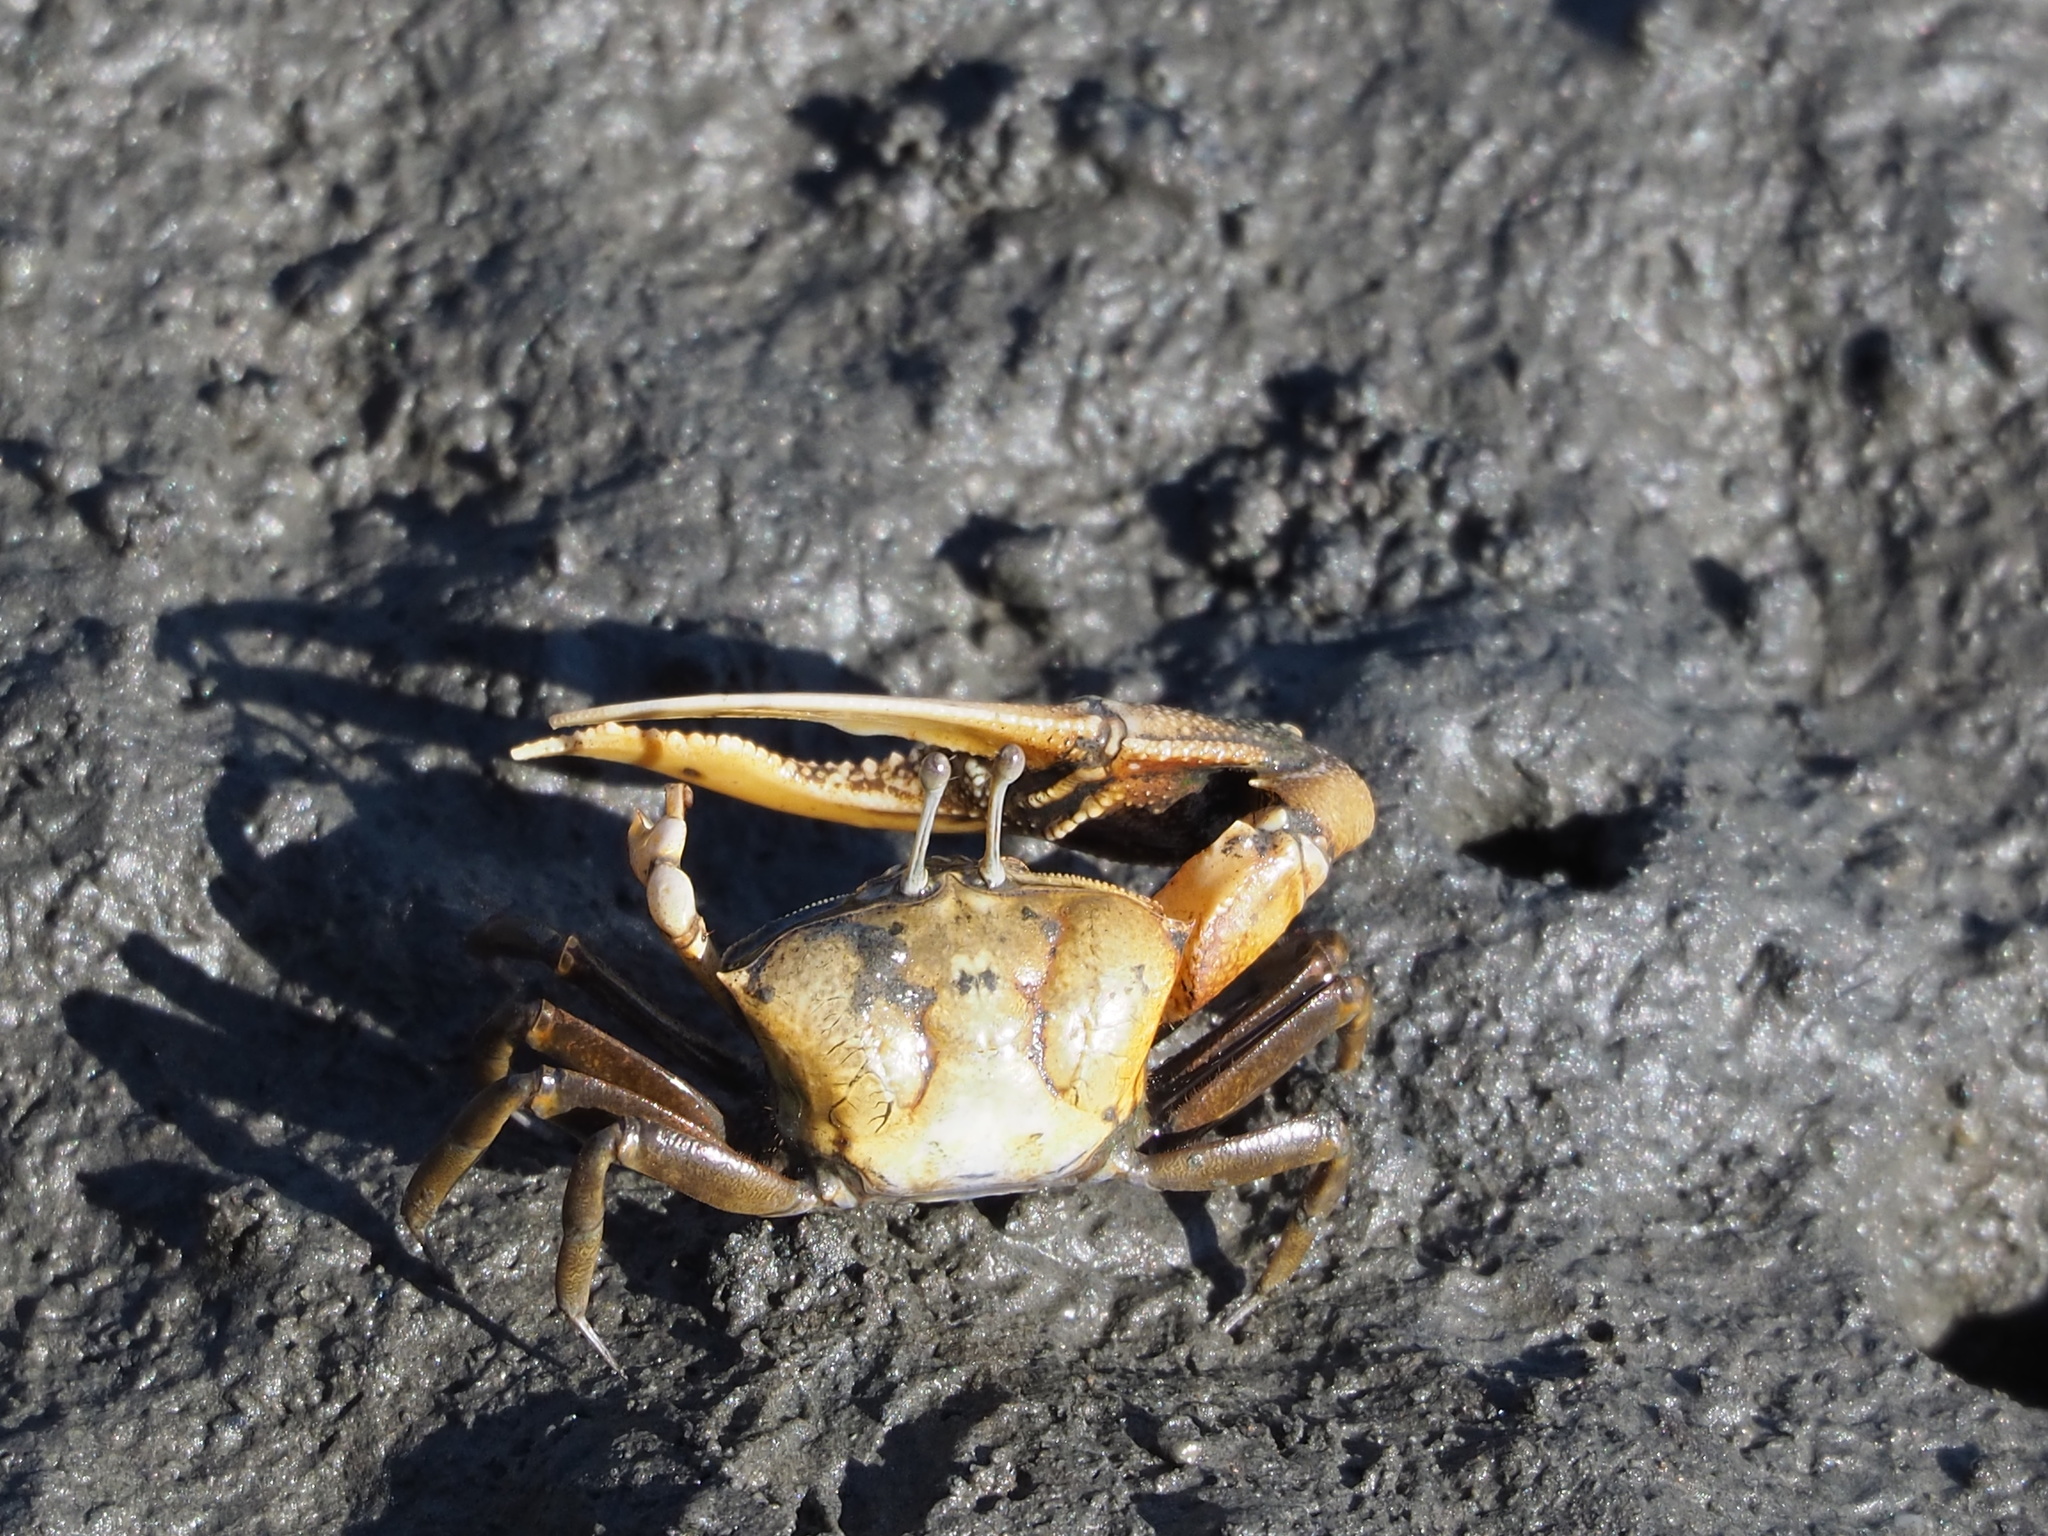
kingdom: Animalia
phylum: Arthropoda
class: Malacostraca
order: Decapoda
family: Ocypodidae
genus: Gelasimus
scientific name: Gelasimus borealis
